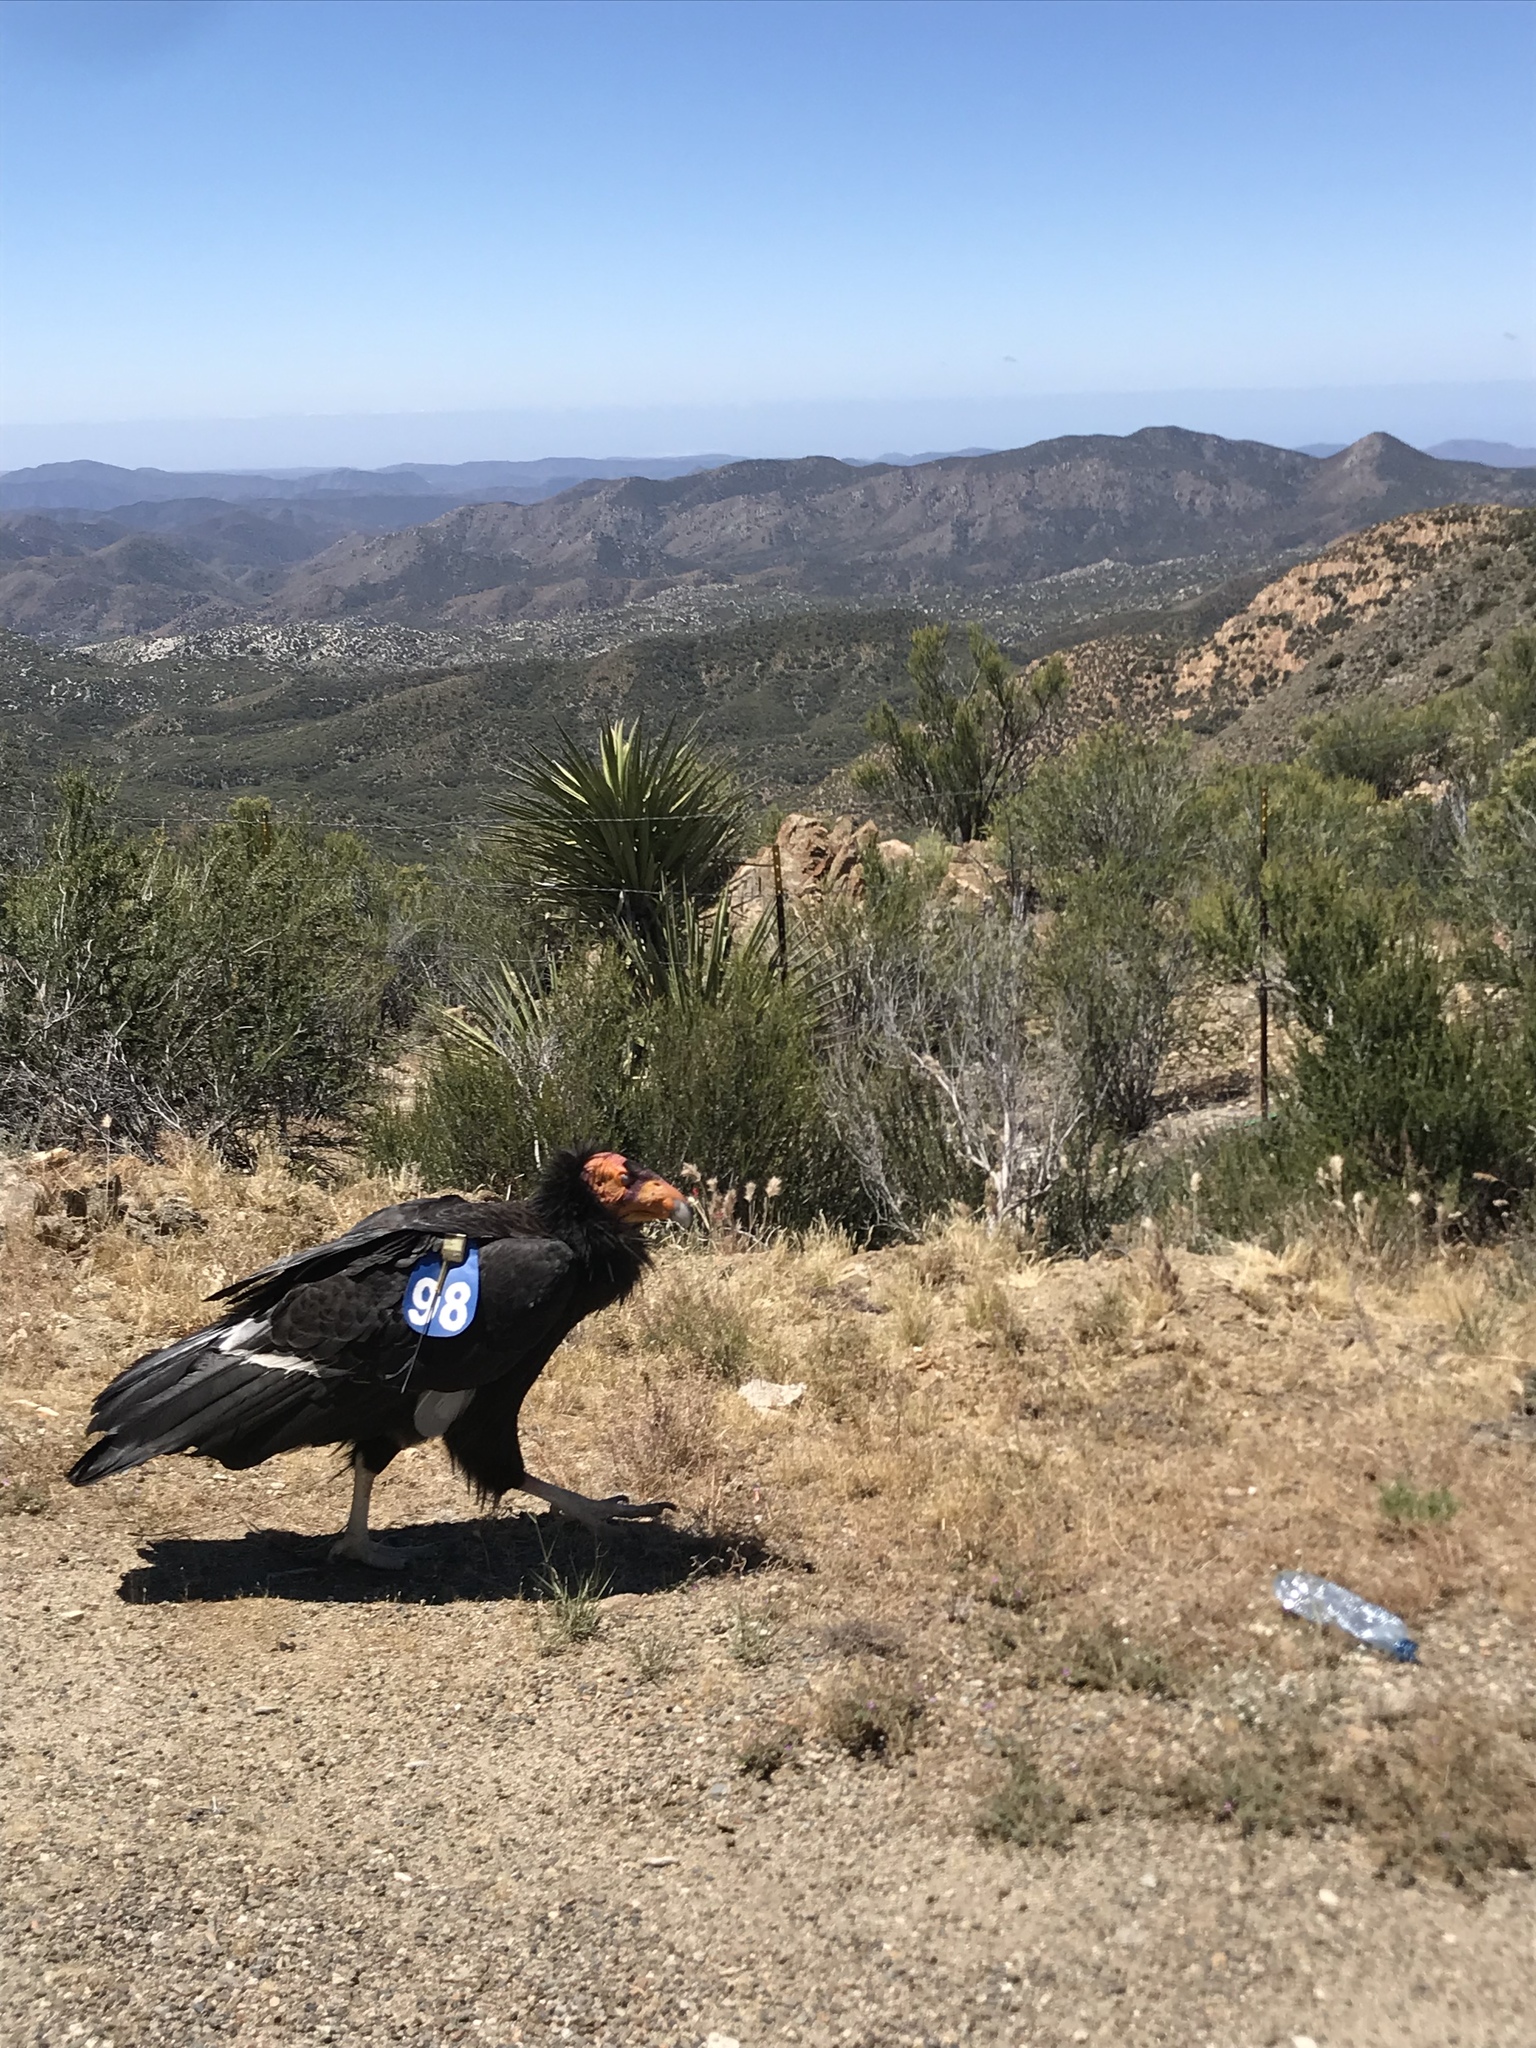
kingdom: Animalia
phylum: Chordata
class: Aves
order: Accipitriformes
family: Cathartidae
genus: Gymnogyps
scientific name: Gymnogyps californianus
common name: California condor
